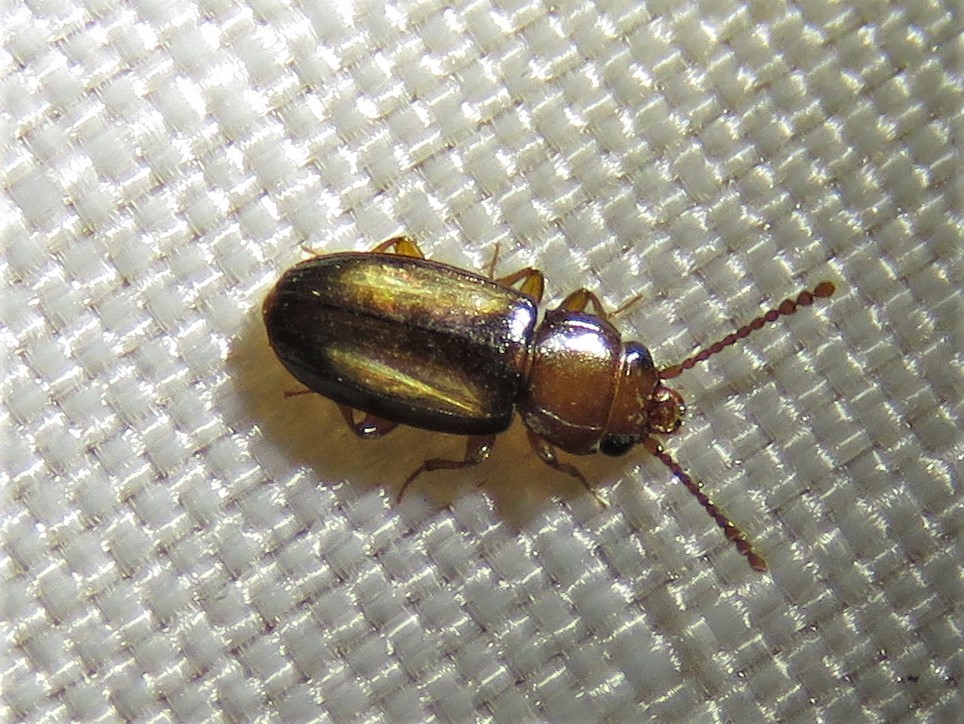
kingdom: Animalia
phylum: Arthropoda
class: Insecta
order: Coleoptera
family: Laemophloeidae
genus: Laemophloeus
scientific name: Laemophloeus terminalis
